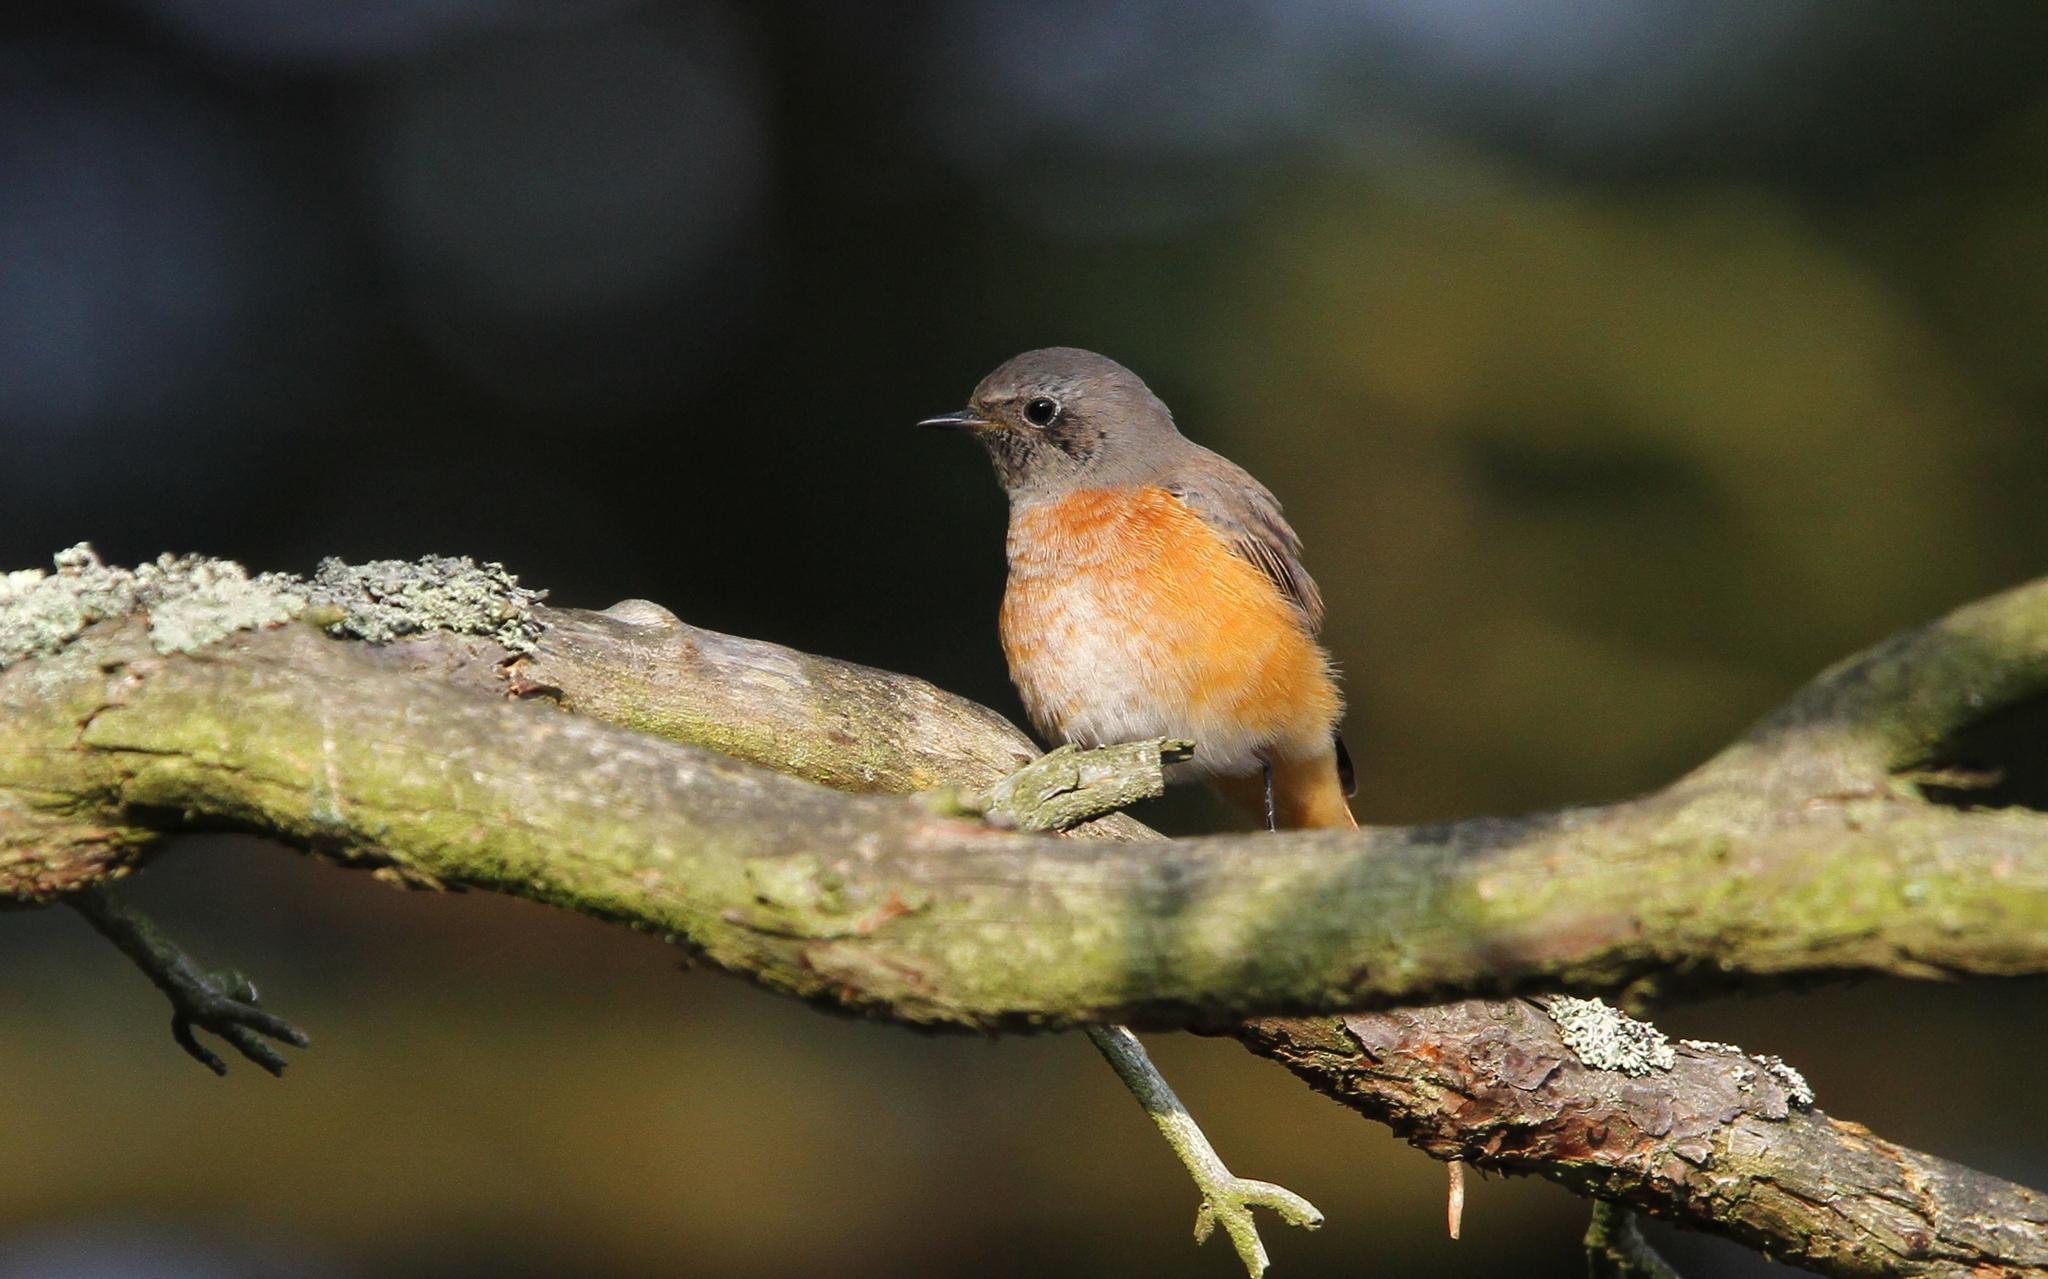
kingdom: Animalia
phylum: Chordata
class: Aves
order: Passeriformes
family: Muscicapidae
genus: Phoenicurus
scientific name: Phoenicurus phoenicurus
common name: Common redstart
